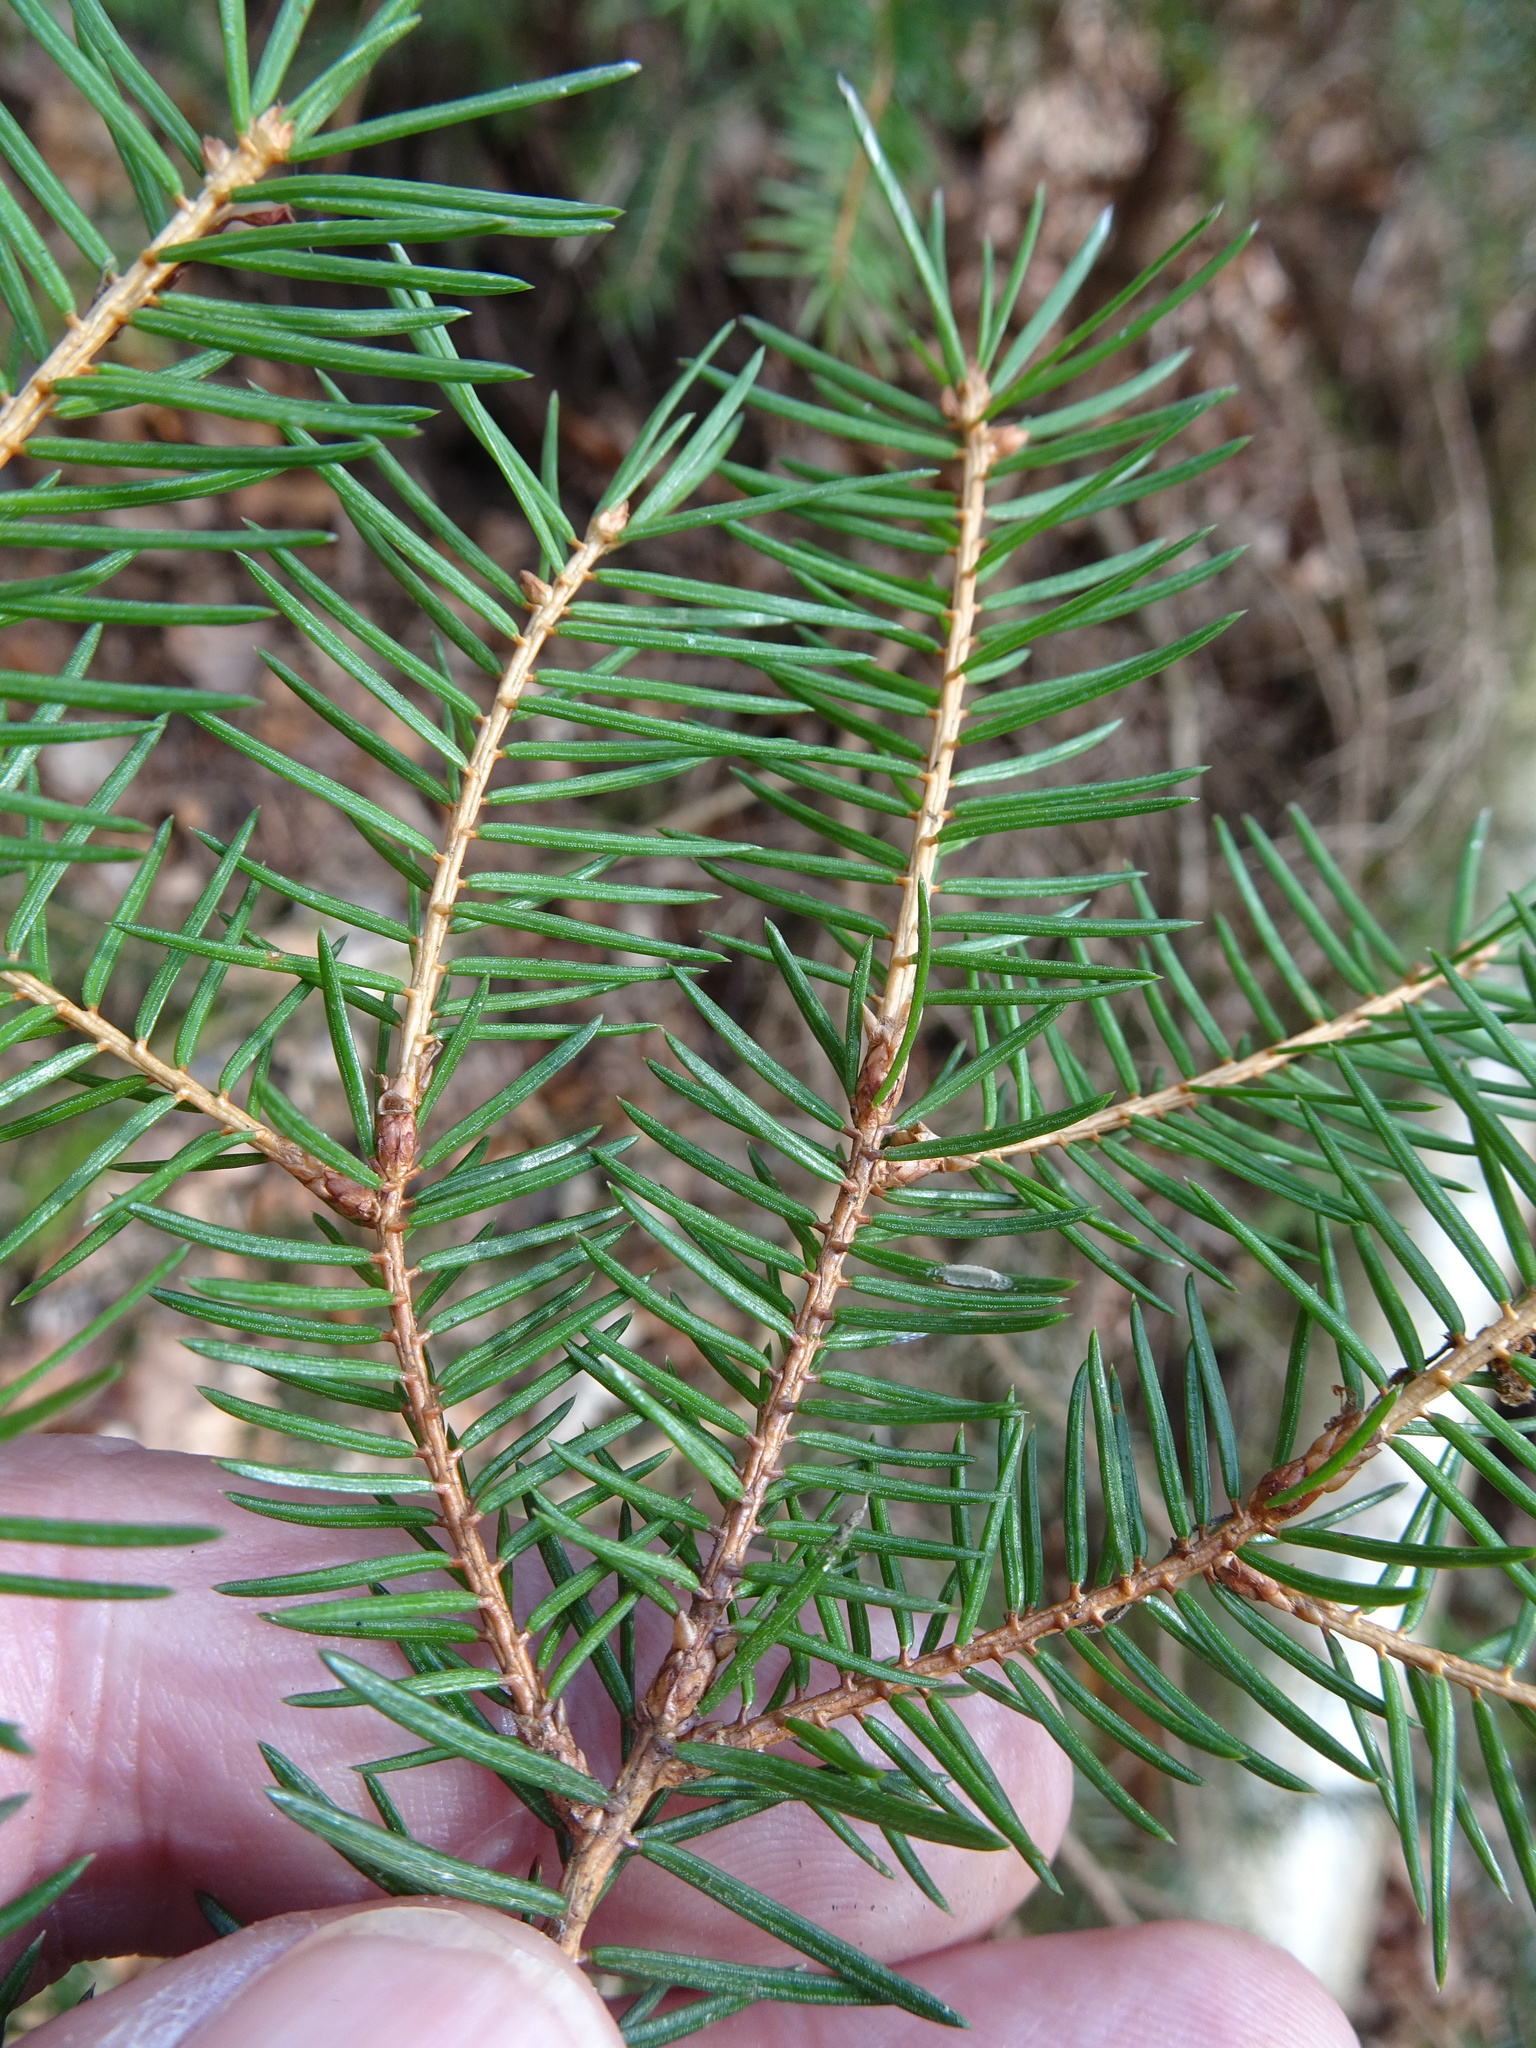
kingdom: Plantae
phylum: Tracheophyta
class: Pinopsida
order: Pinales
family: Pinaceae
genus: Picea
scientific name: Picea abies
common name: Norway spruce
